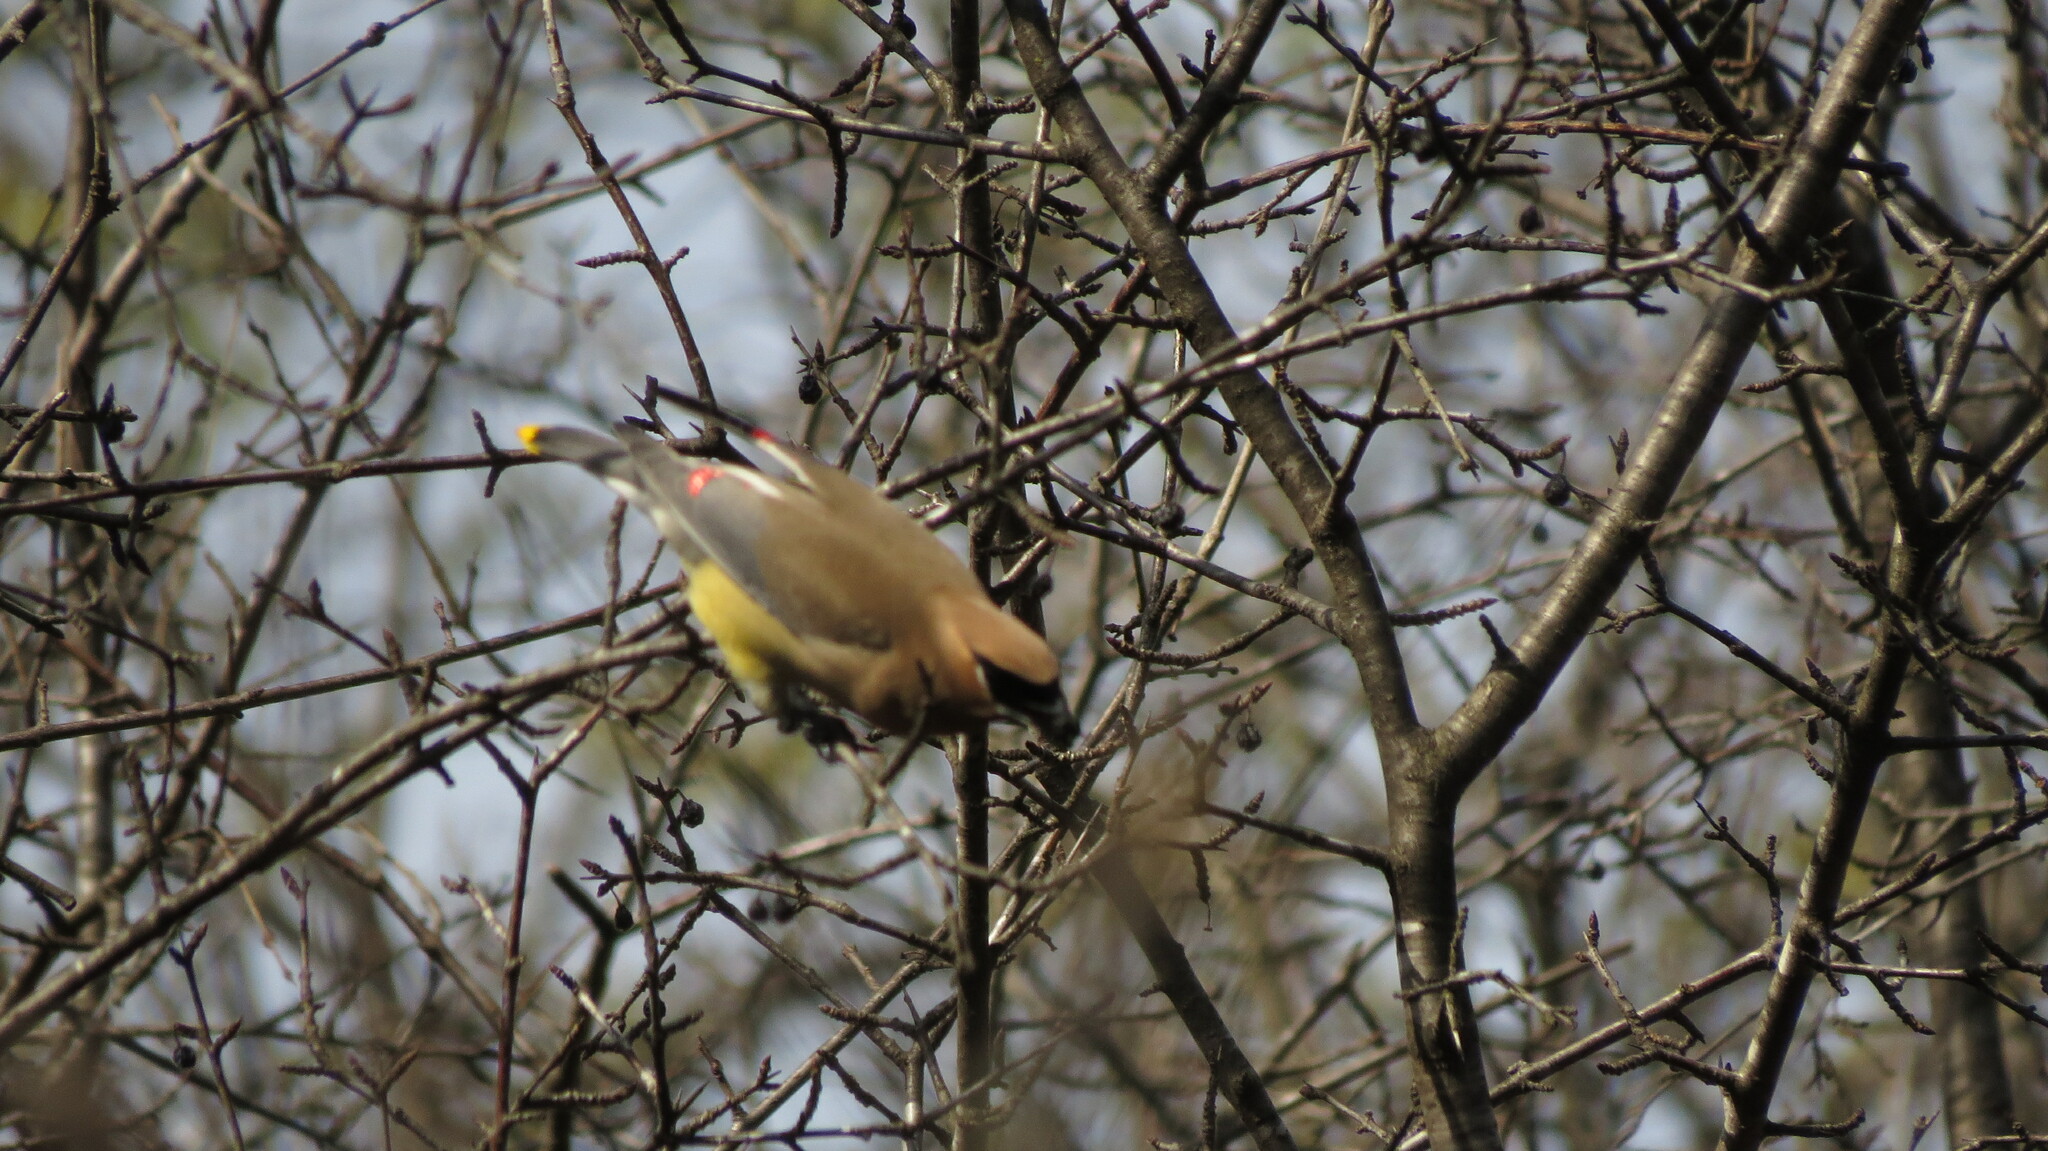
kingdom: Animalia
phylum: Chordata
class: Aves
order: Passeriformes
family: Bombycillidae
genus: Bombycilla
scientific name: Bombycilla cedrorum
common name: Cedar waxwing
